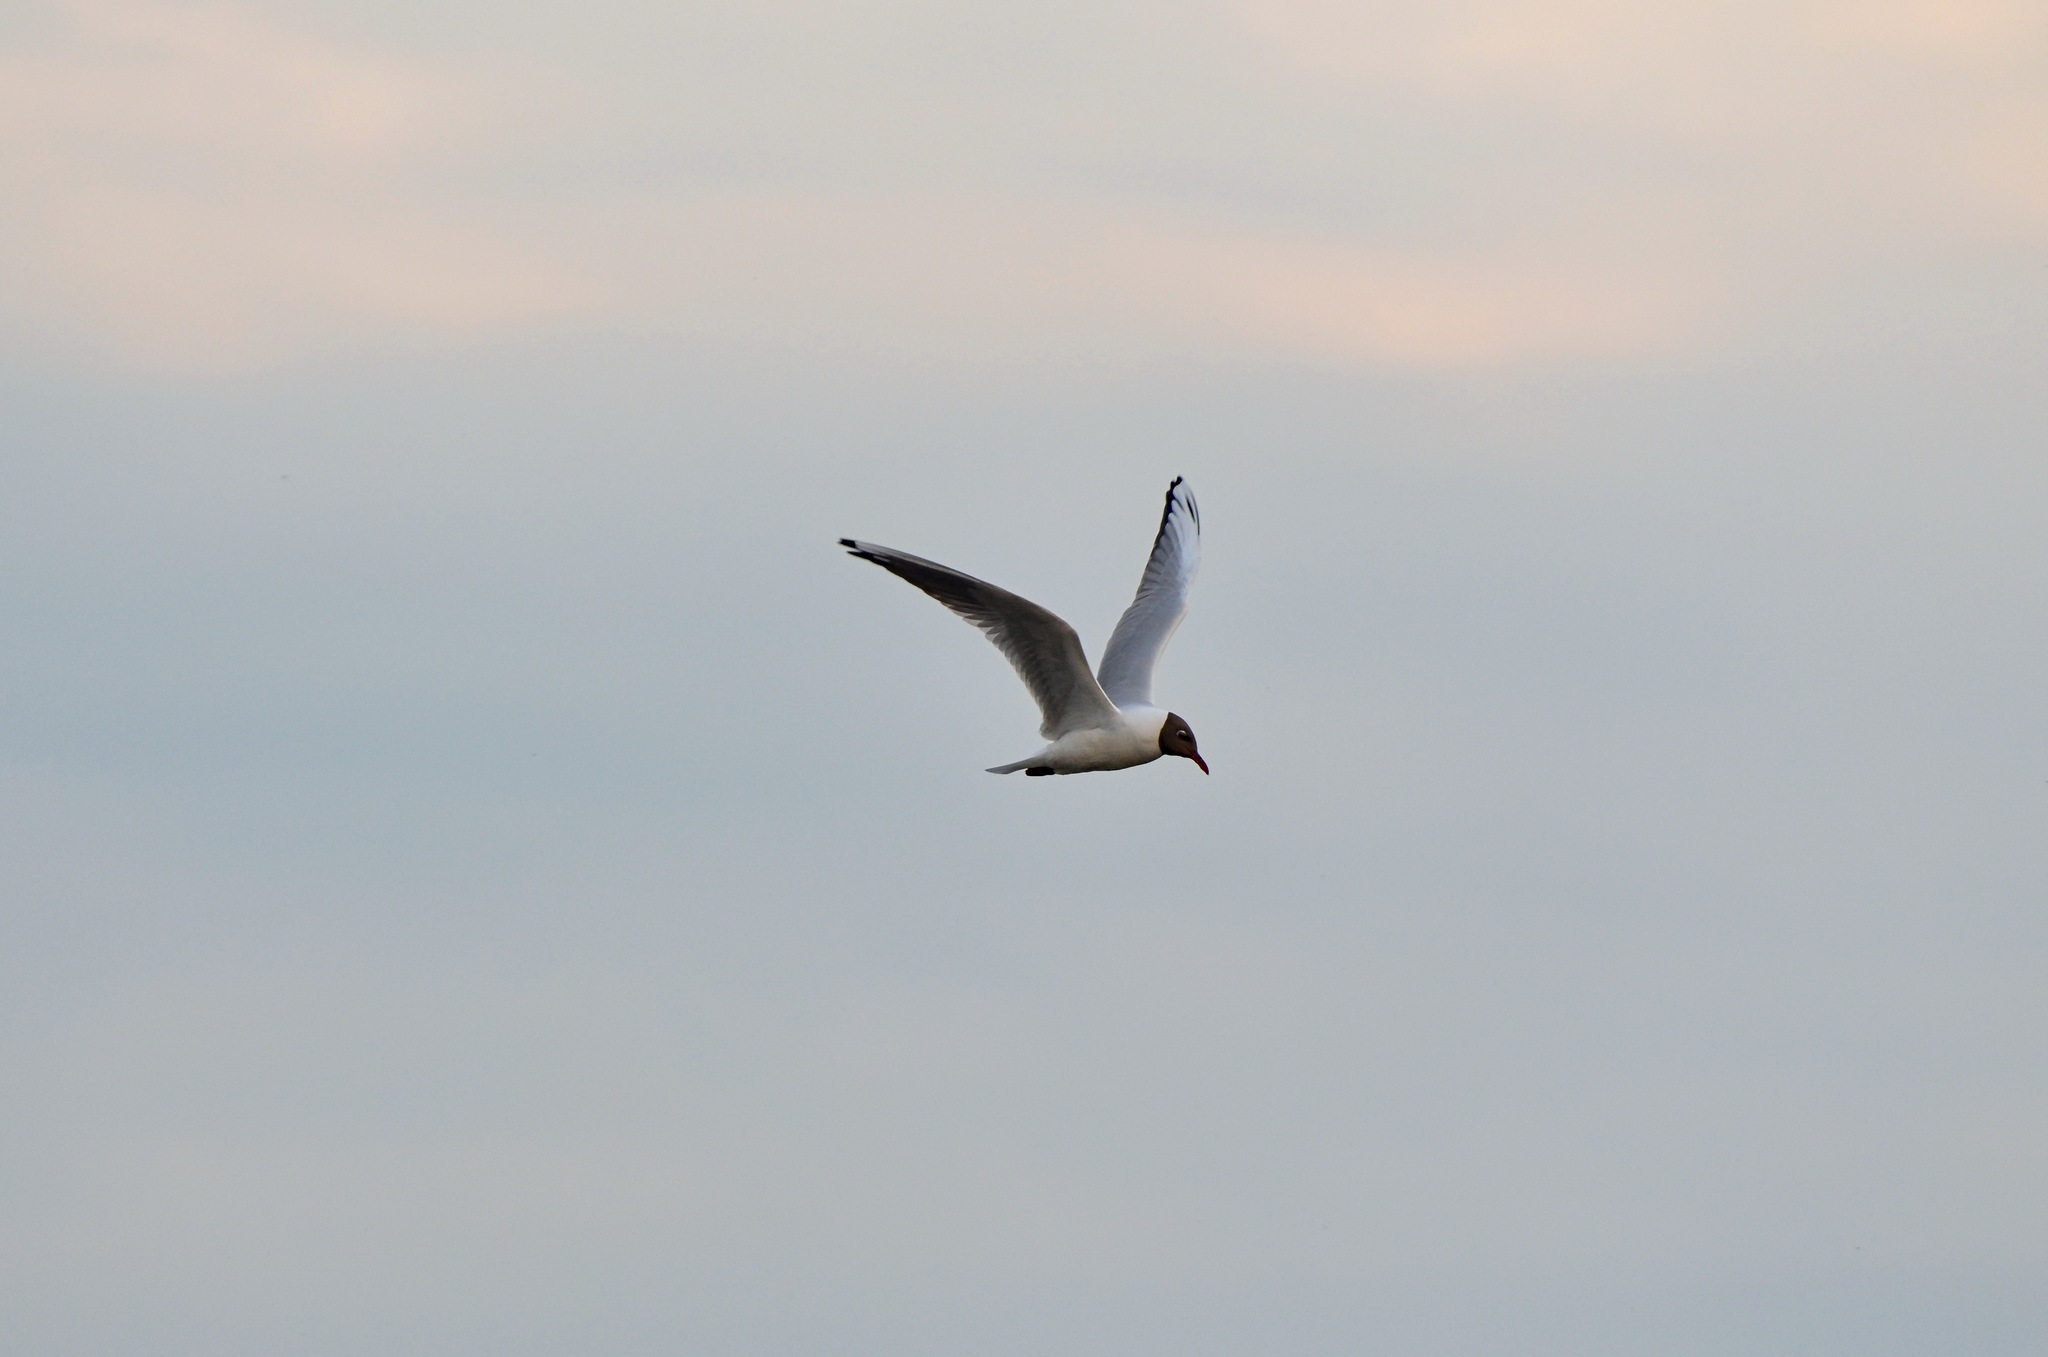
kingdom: Animalia
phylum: Chordata
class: Aves
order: Charadriiformes
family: Laridae
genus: Chroicocephalus
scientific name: Chroicocephalus ridibundus
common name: Black-headed gull
